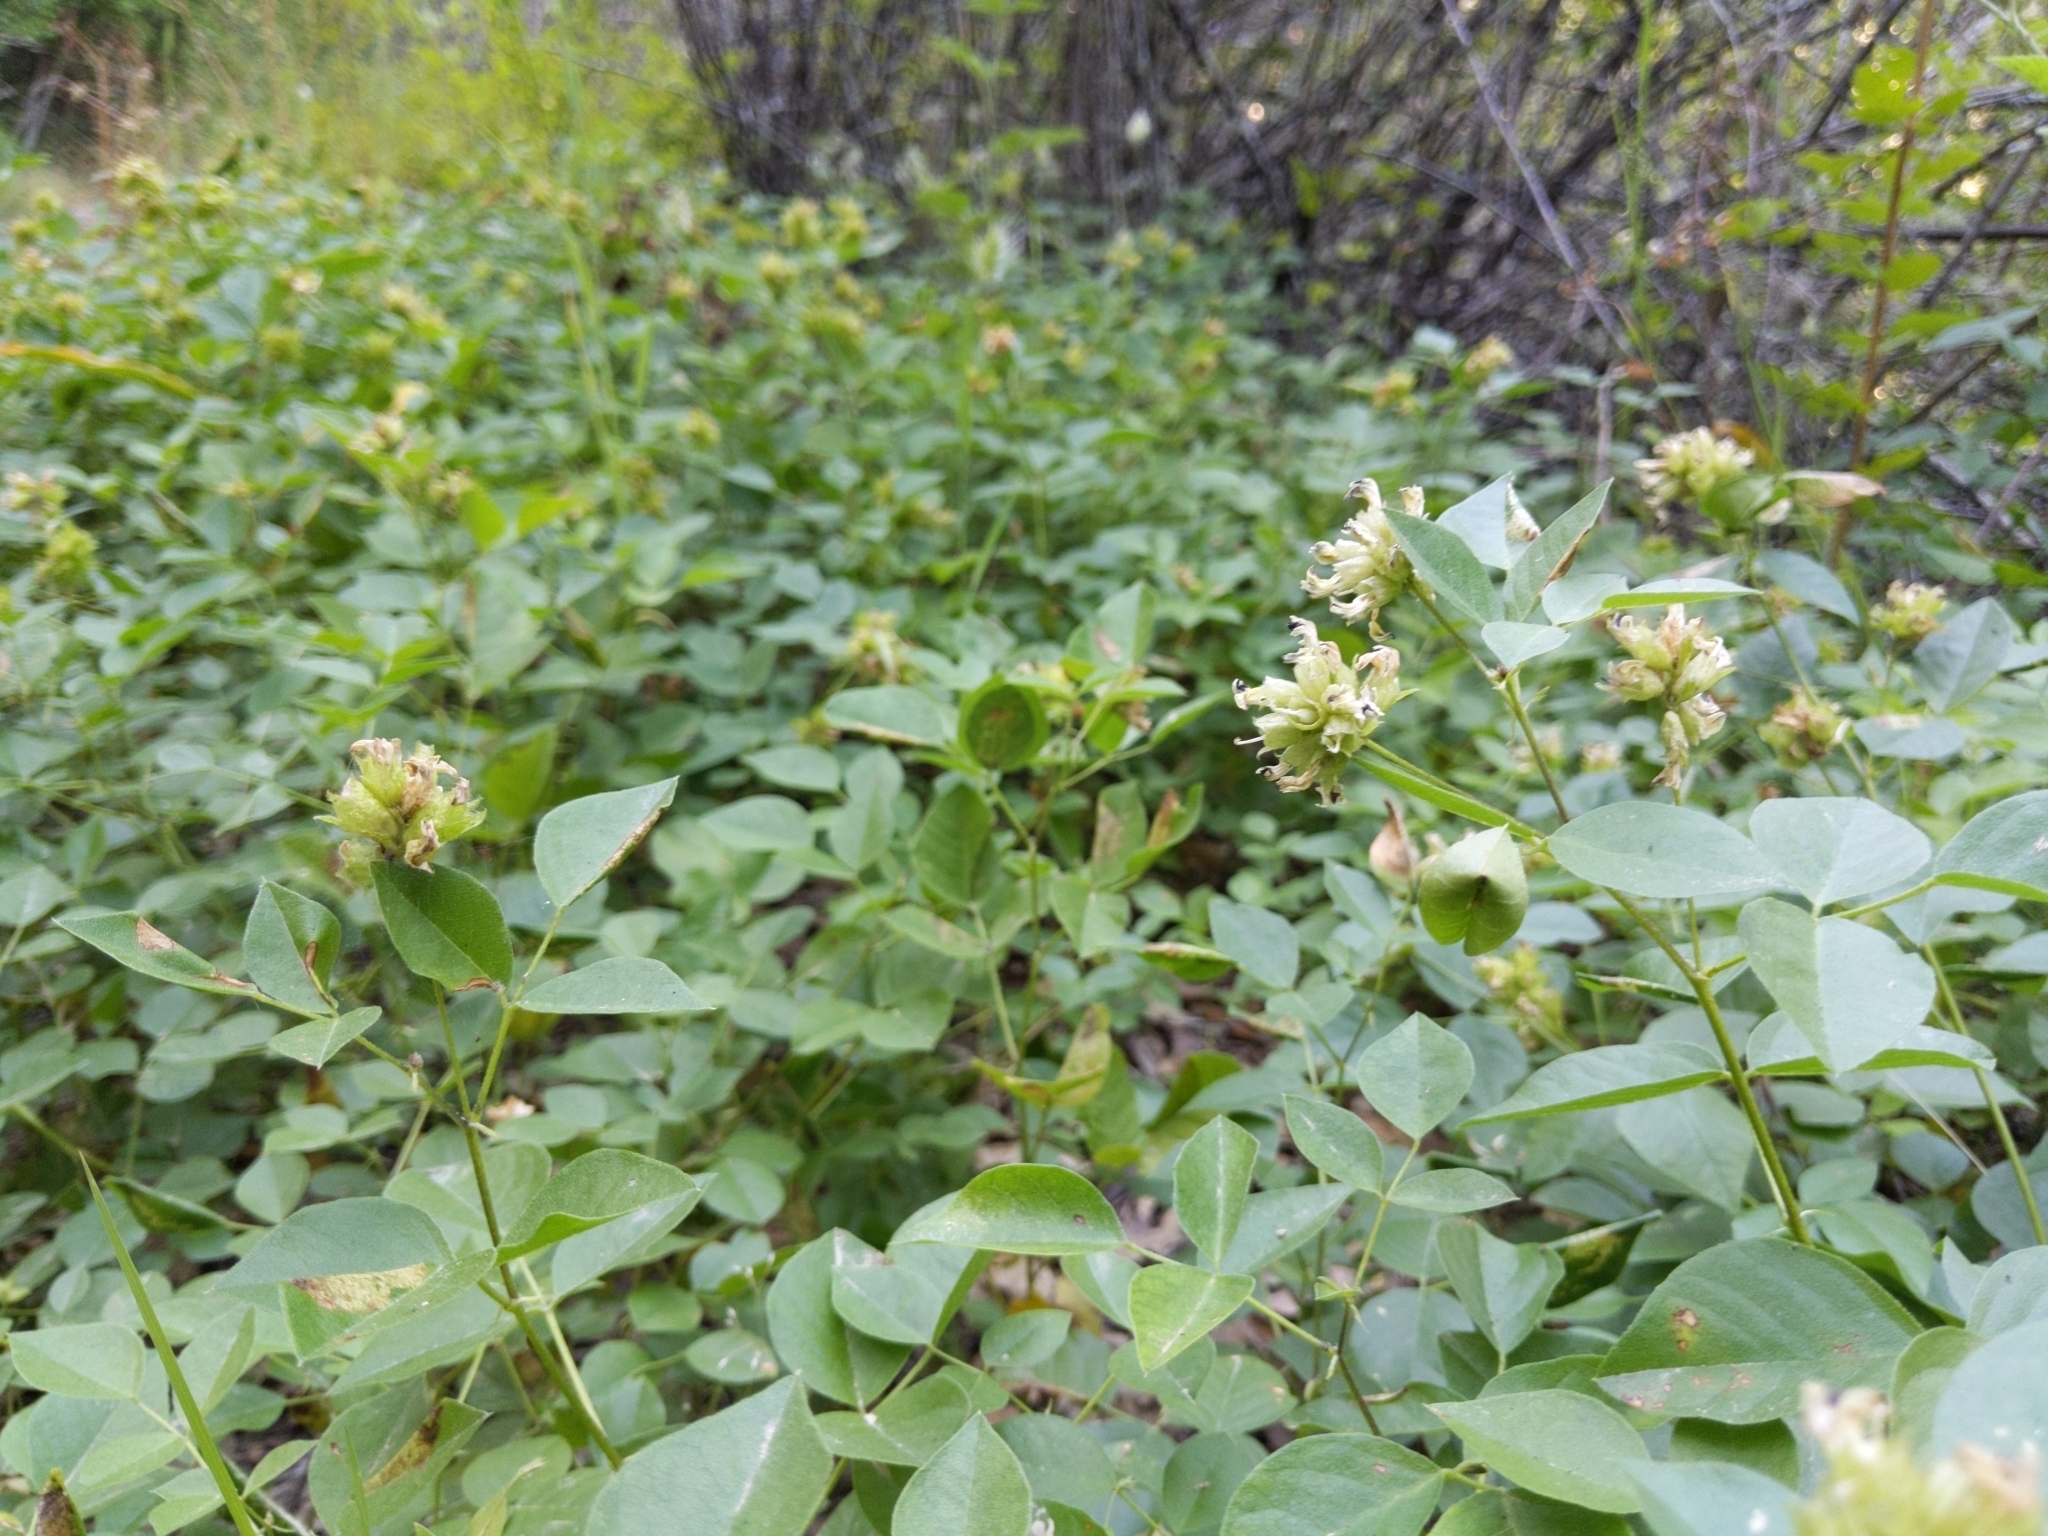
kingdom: Plantae
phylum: Tracheophyta
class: Magnoliopsida
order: Fabales
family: Fabaceae
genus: Rupertia
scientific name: Rupertia physodes
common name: California-tea
